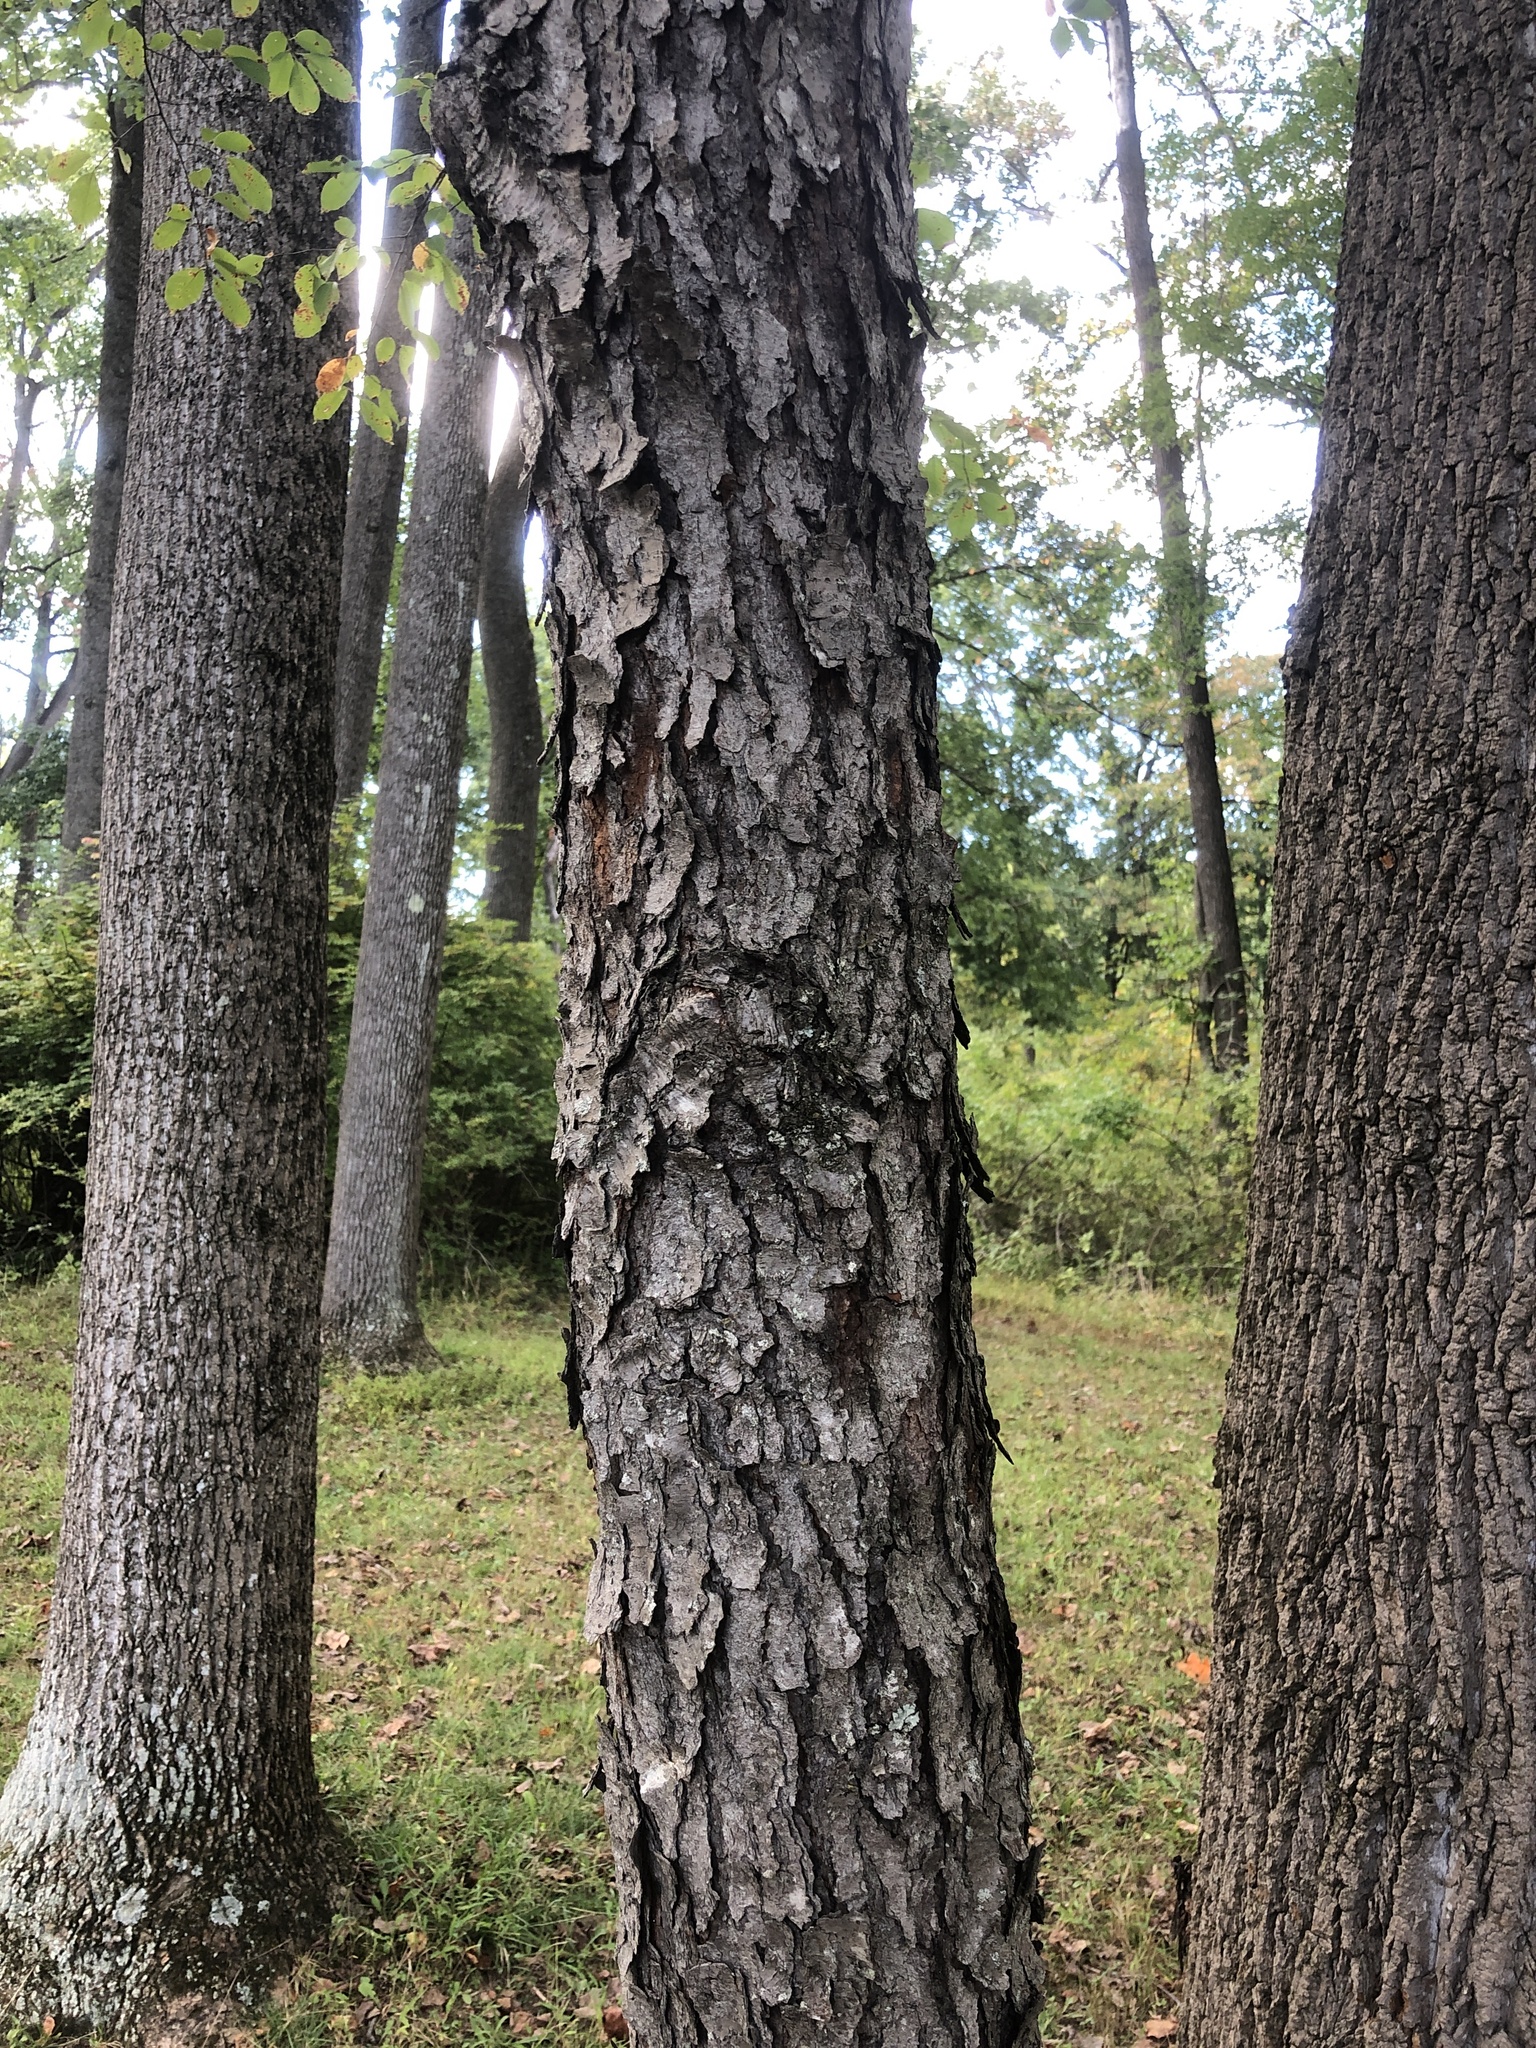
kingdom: Plantae
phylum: Tracheophyta
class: Magnoliopsida
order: Rosales
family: Rosaceae
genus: Prunus
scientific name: Prunus serotina
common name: Black cherry
